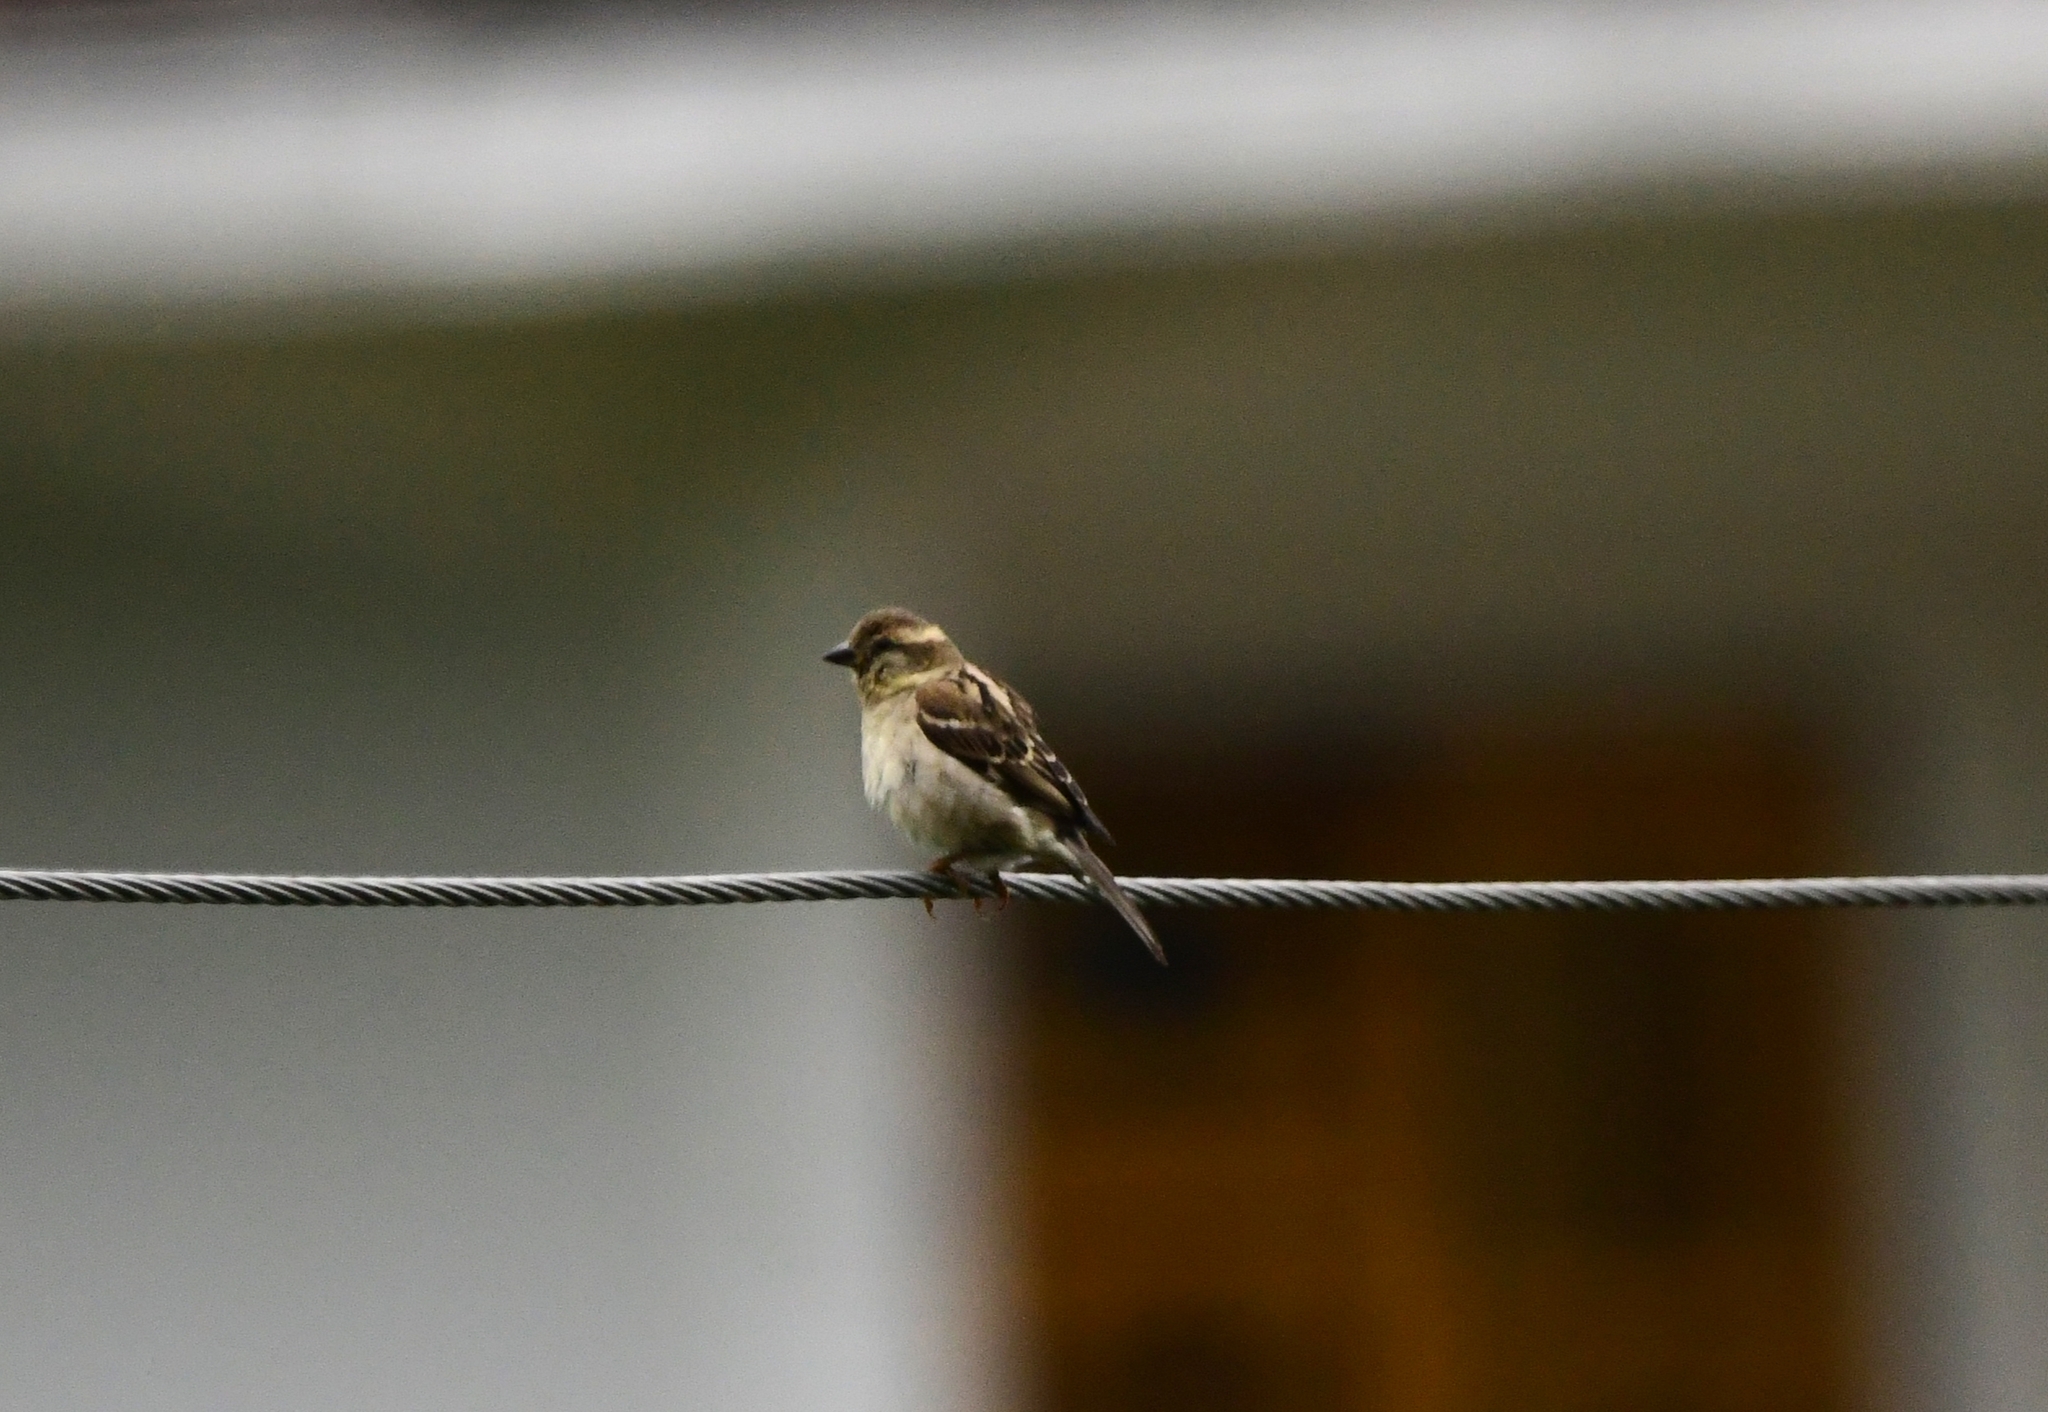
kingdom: Animalia
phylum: Chordata
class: Aves
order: Passeriformes
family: Passeridae
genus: Passer
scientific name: Passer cinnamomeus
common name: Russet sparrow
